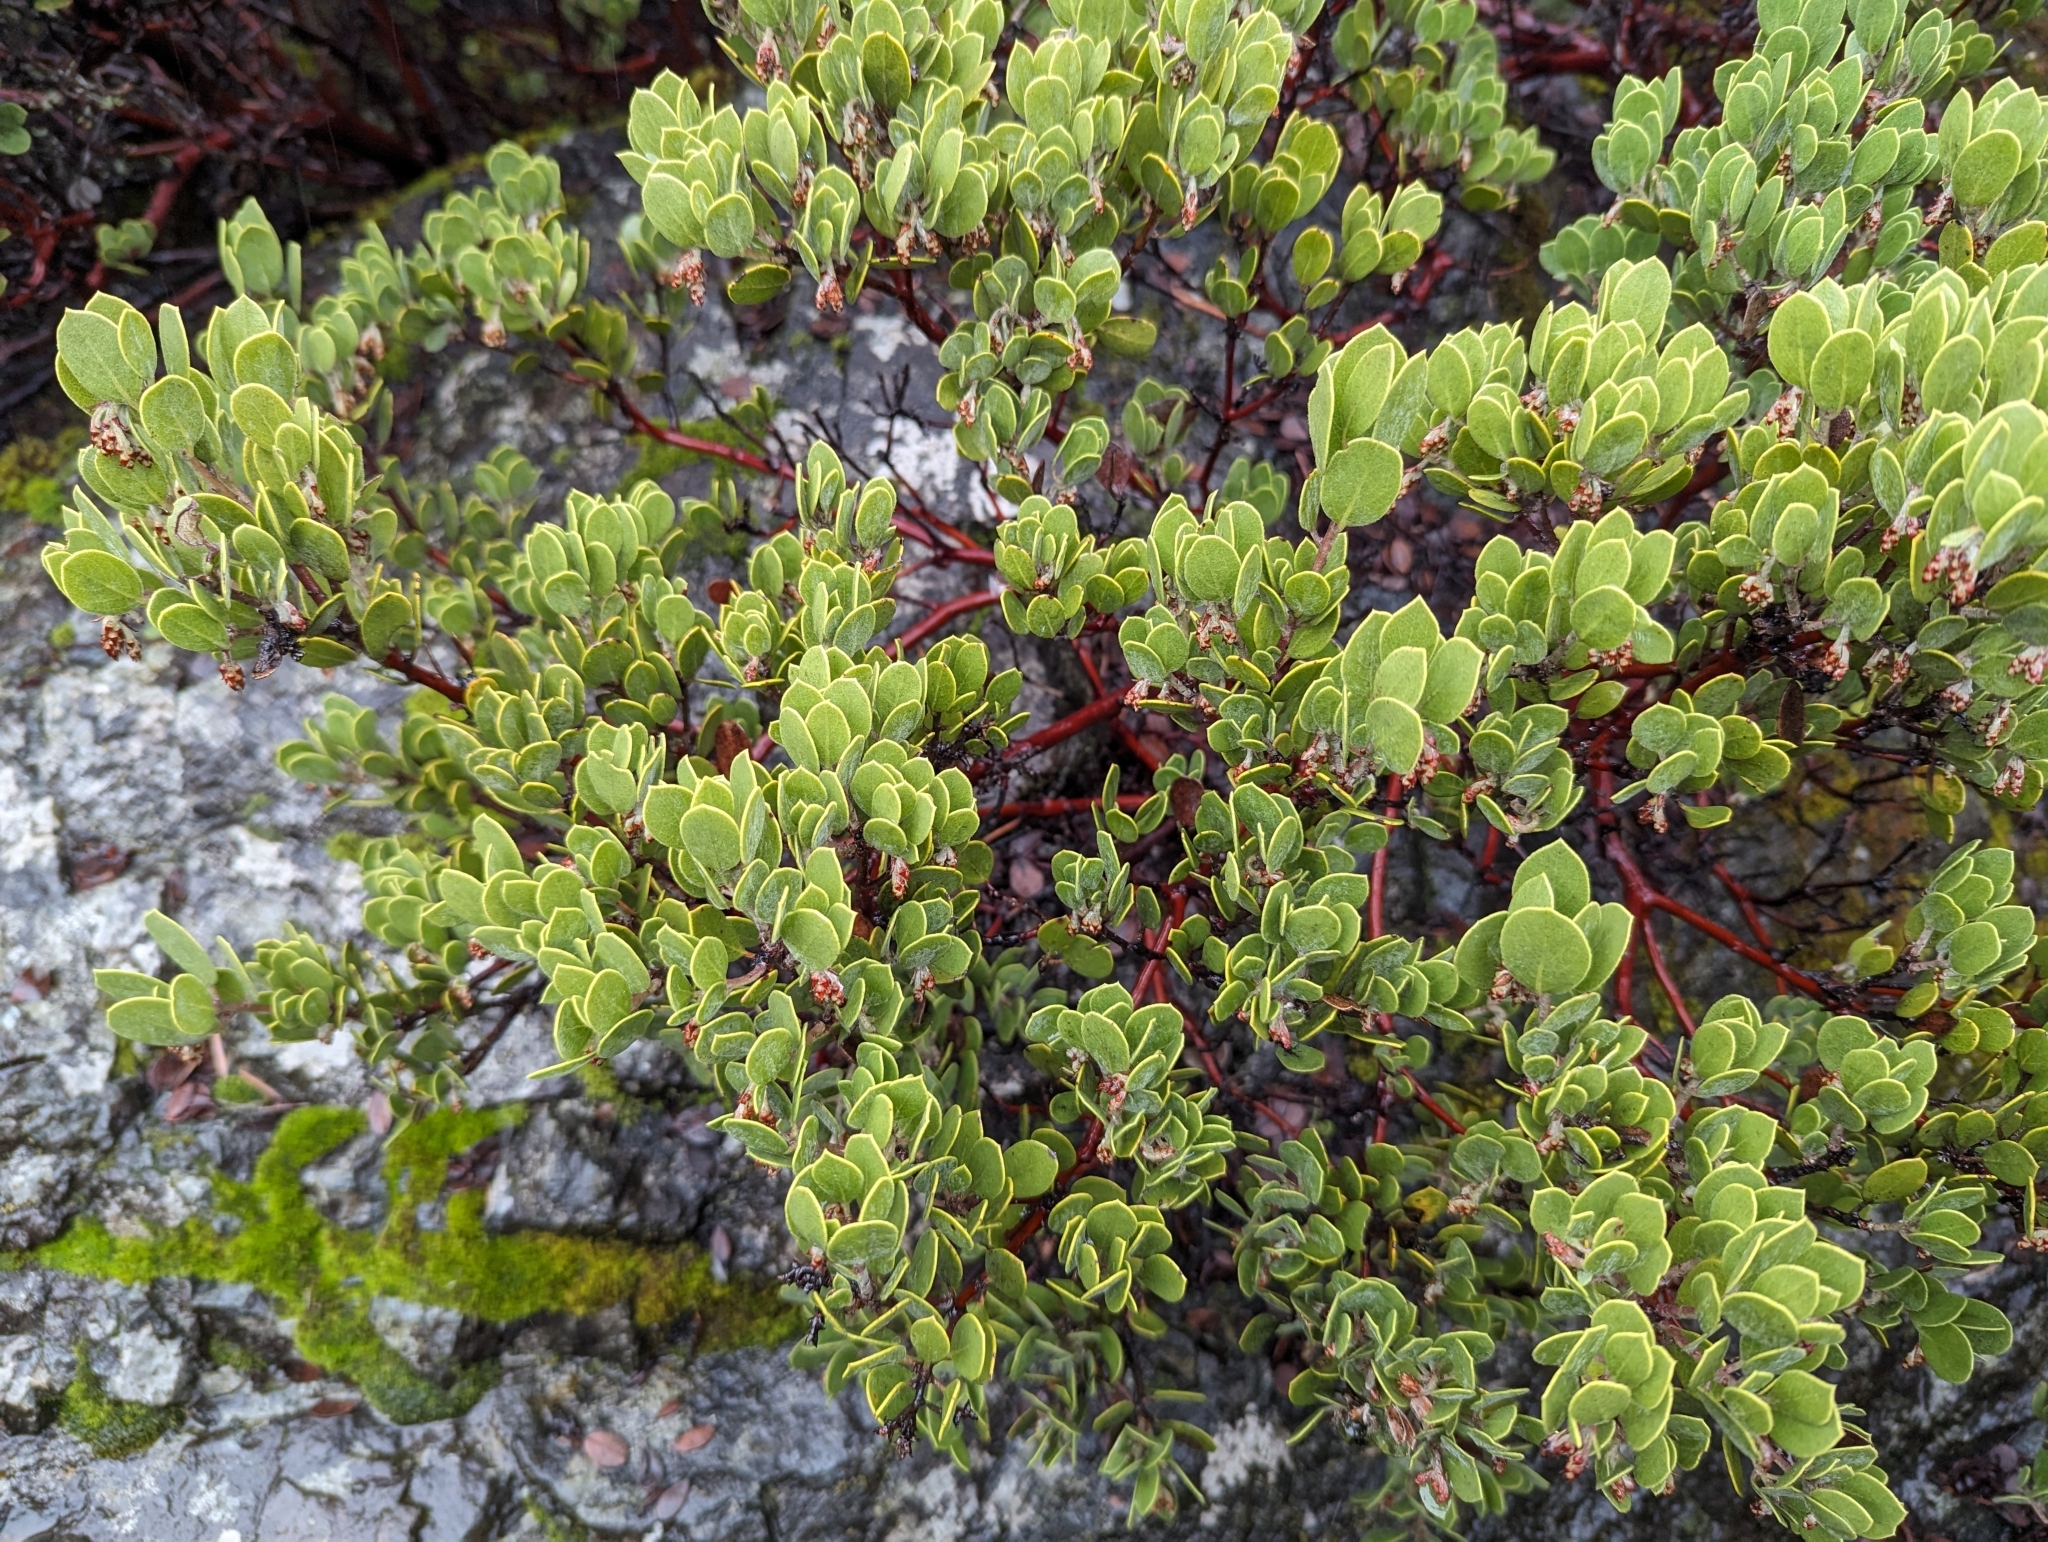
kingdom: Plantae
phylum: Tracheophyta
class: Magnoliopsida
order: Ericales
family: Ericaceae
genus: Arctostaphylos
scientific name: Arctostaphylos montana
